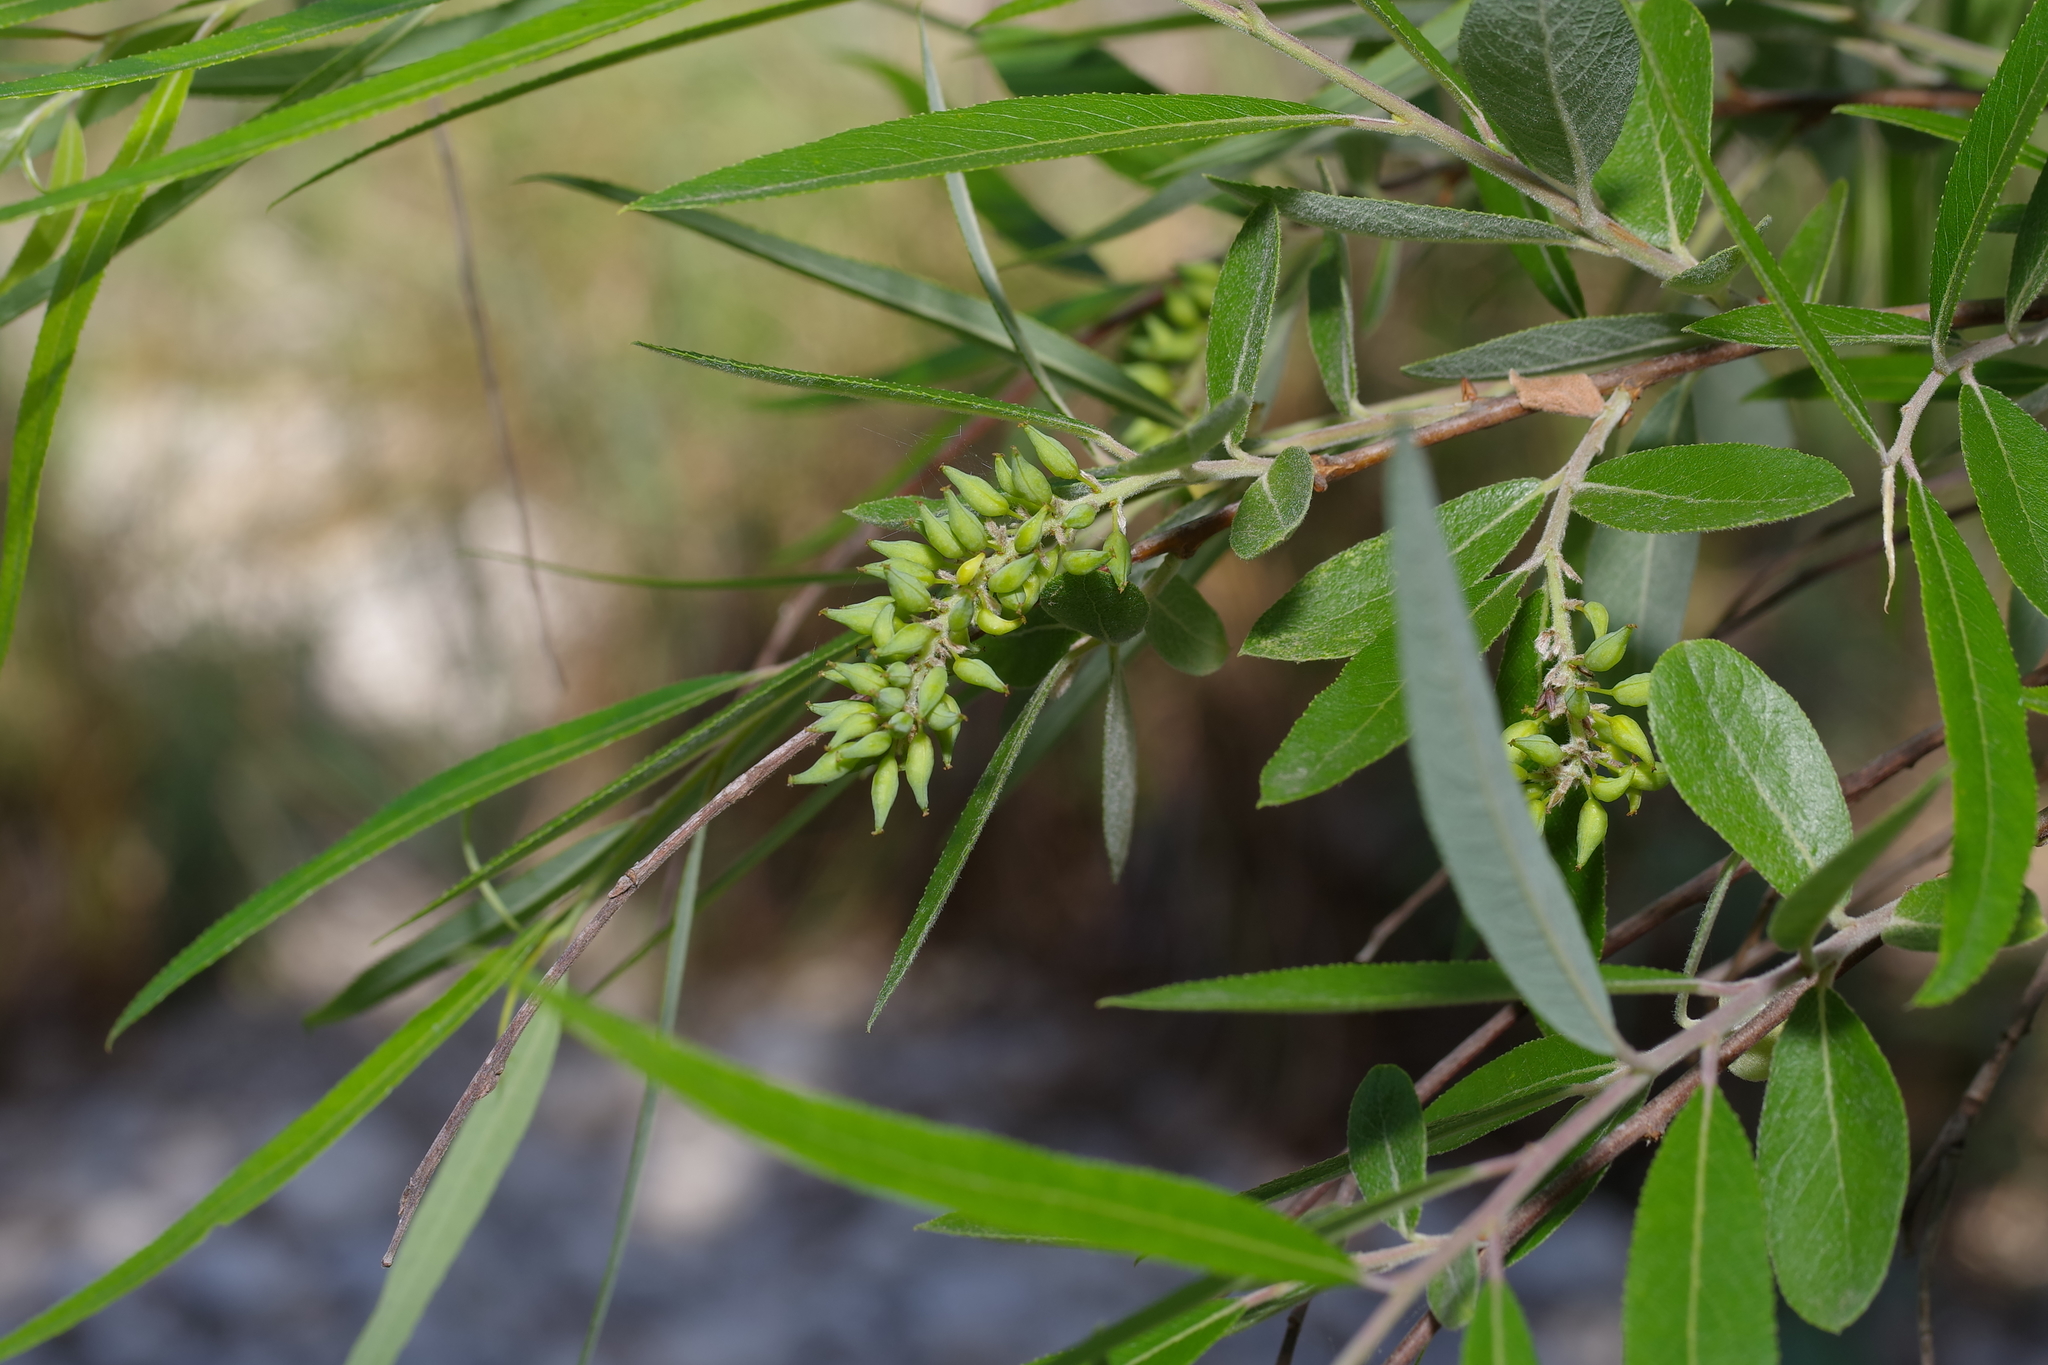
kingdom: Plantae
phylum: Tracheophyta
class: Magnoliopsida
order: Malpighiales
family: Salicaceae
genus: Salix
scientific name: Salix caroliniana
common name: Carolina willow
